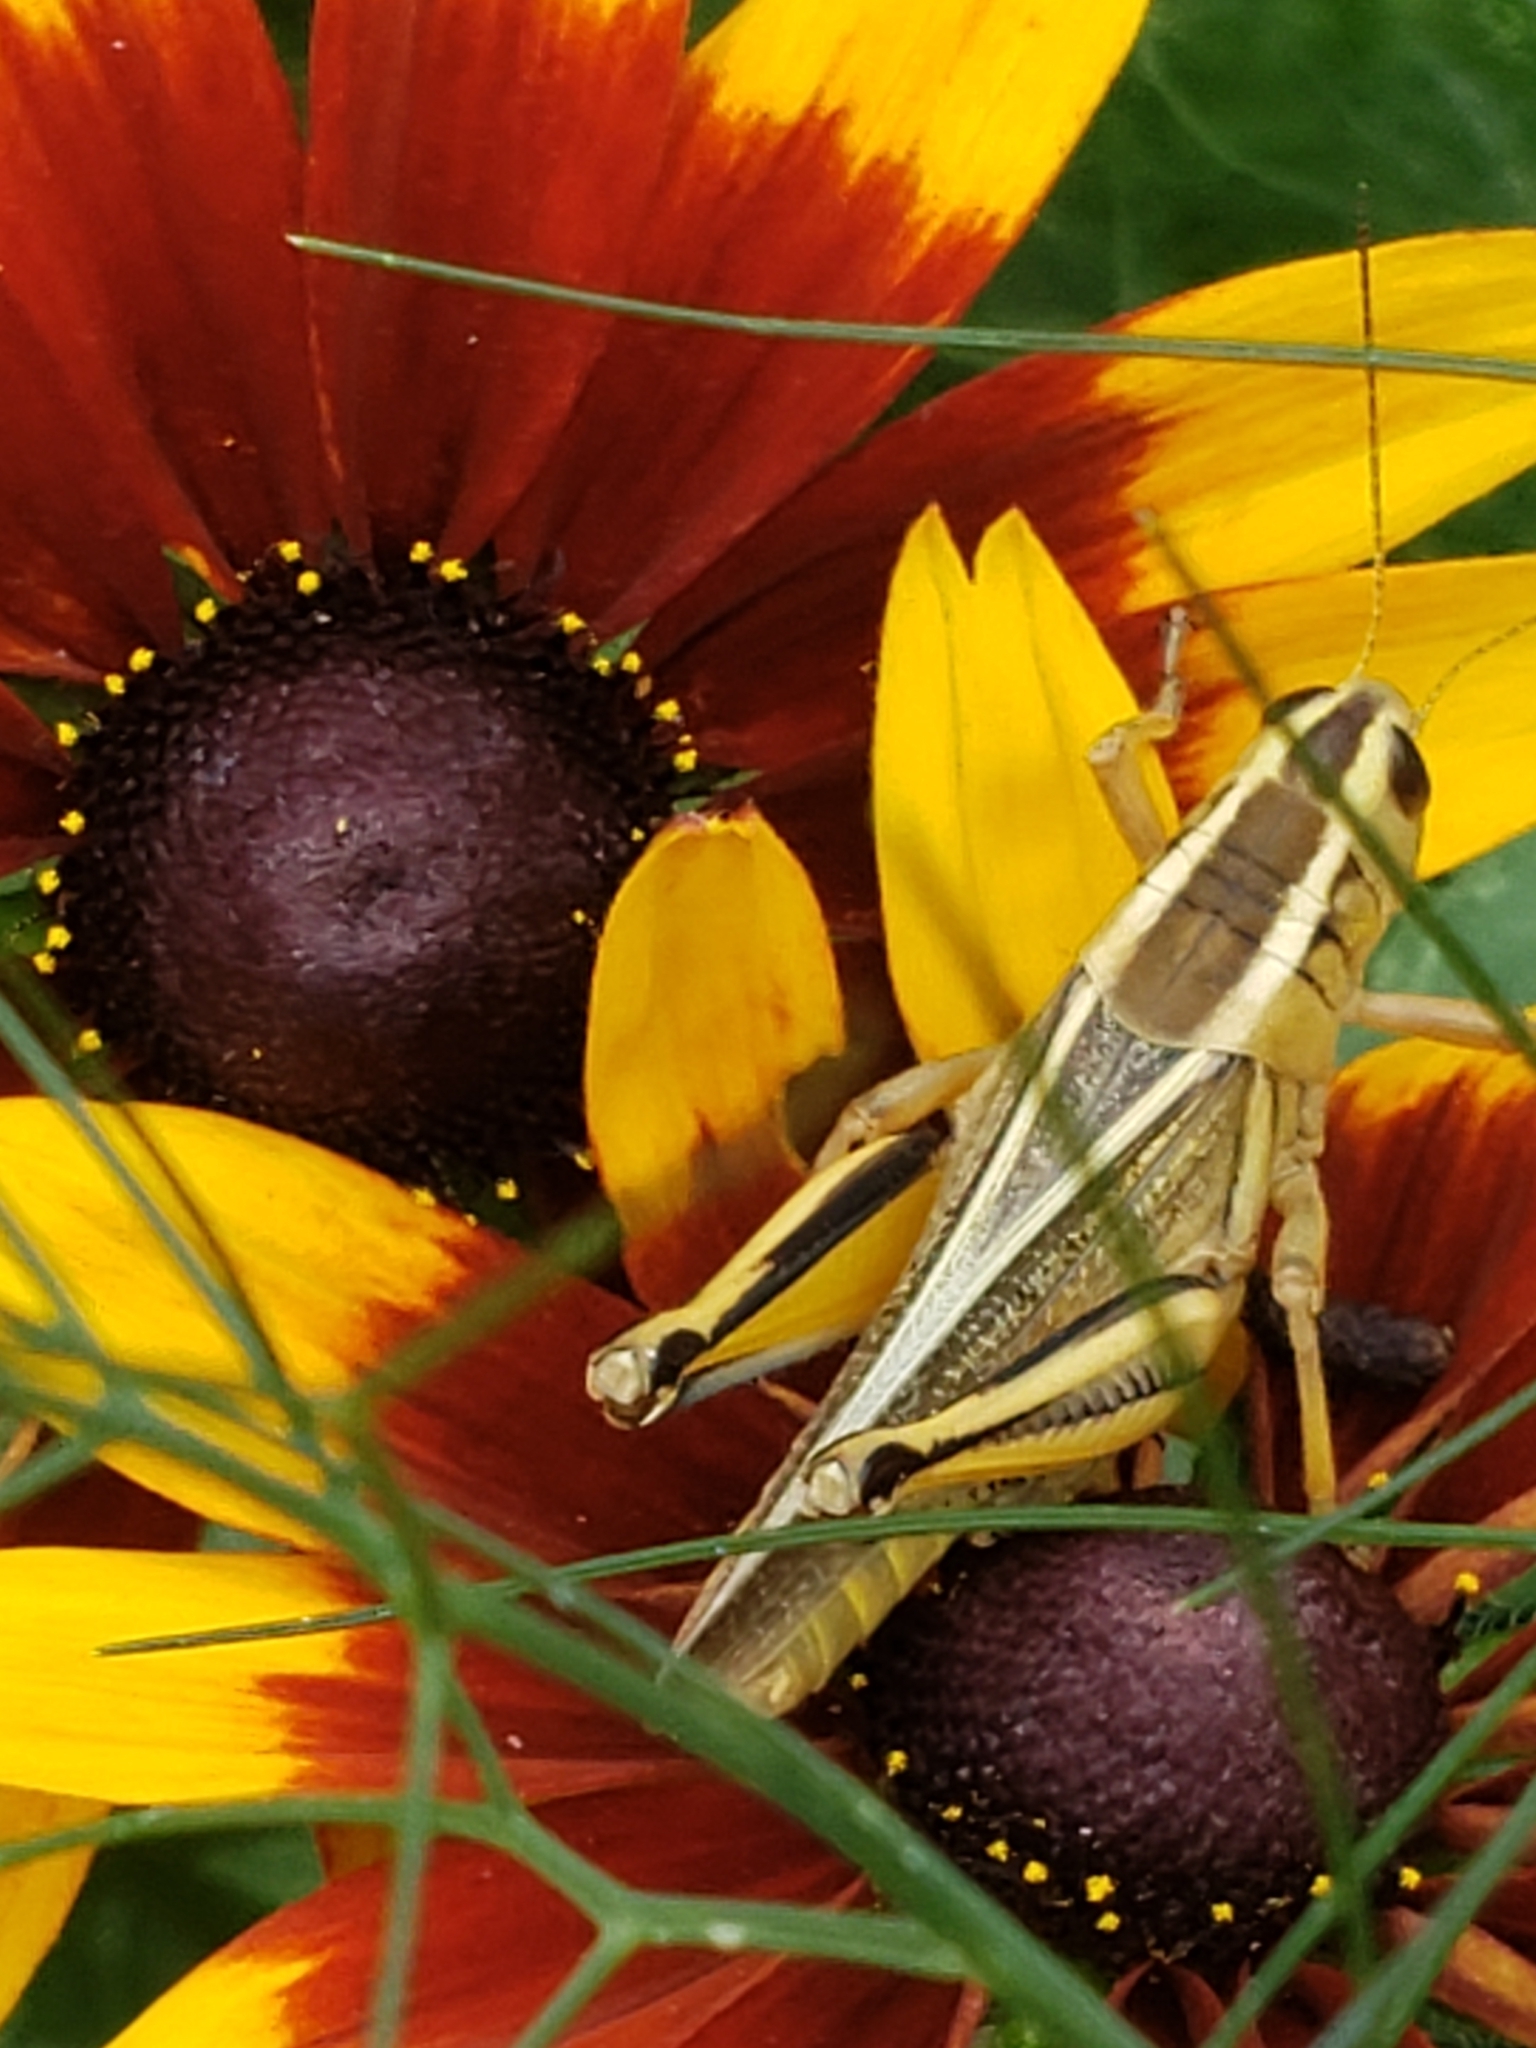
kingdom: Animalia
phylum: Arthropoda
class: Insecta
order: Orthoptera
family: Acrididae
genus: Melanoplus
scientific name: Melanoplus bivittatus
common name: Two-striped grasshopper
